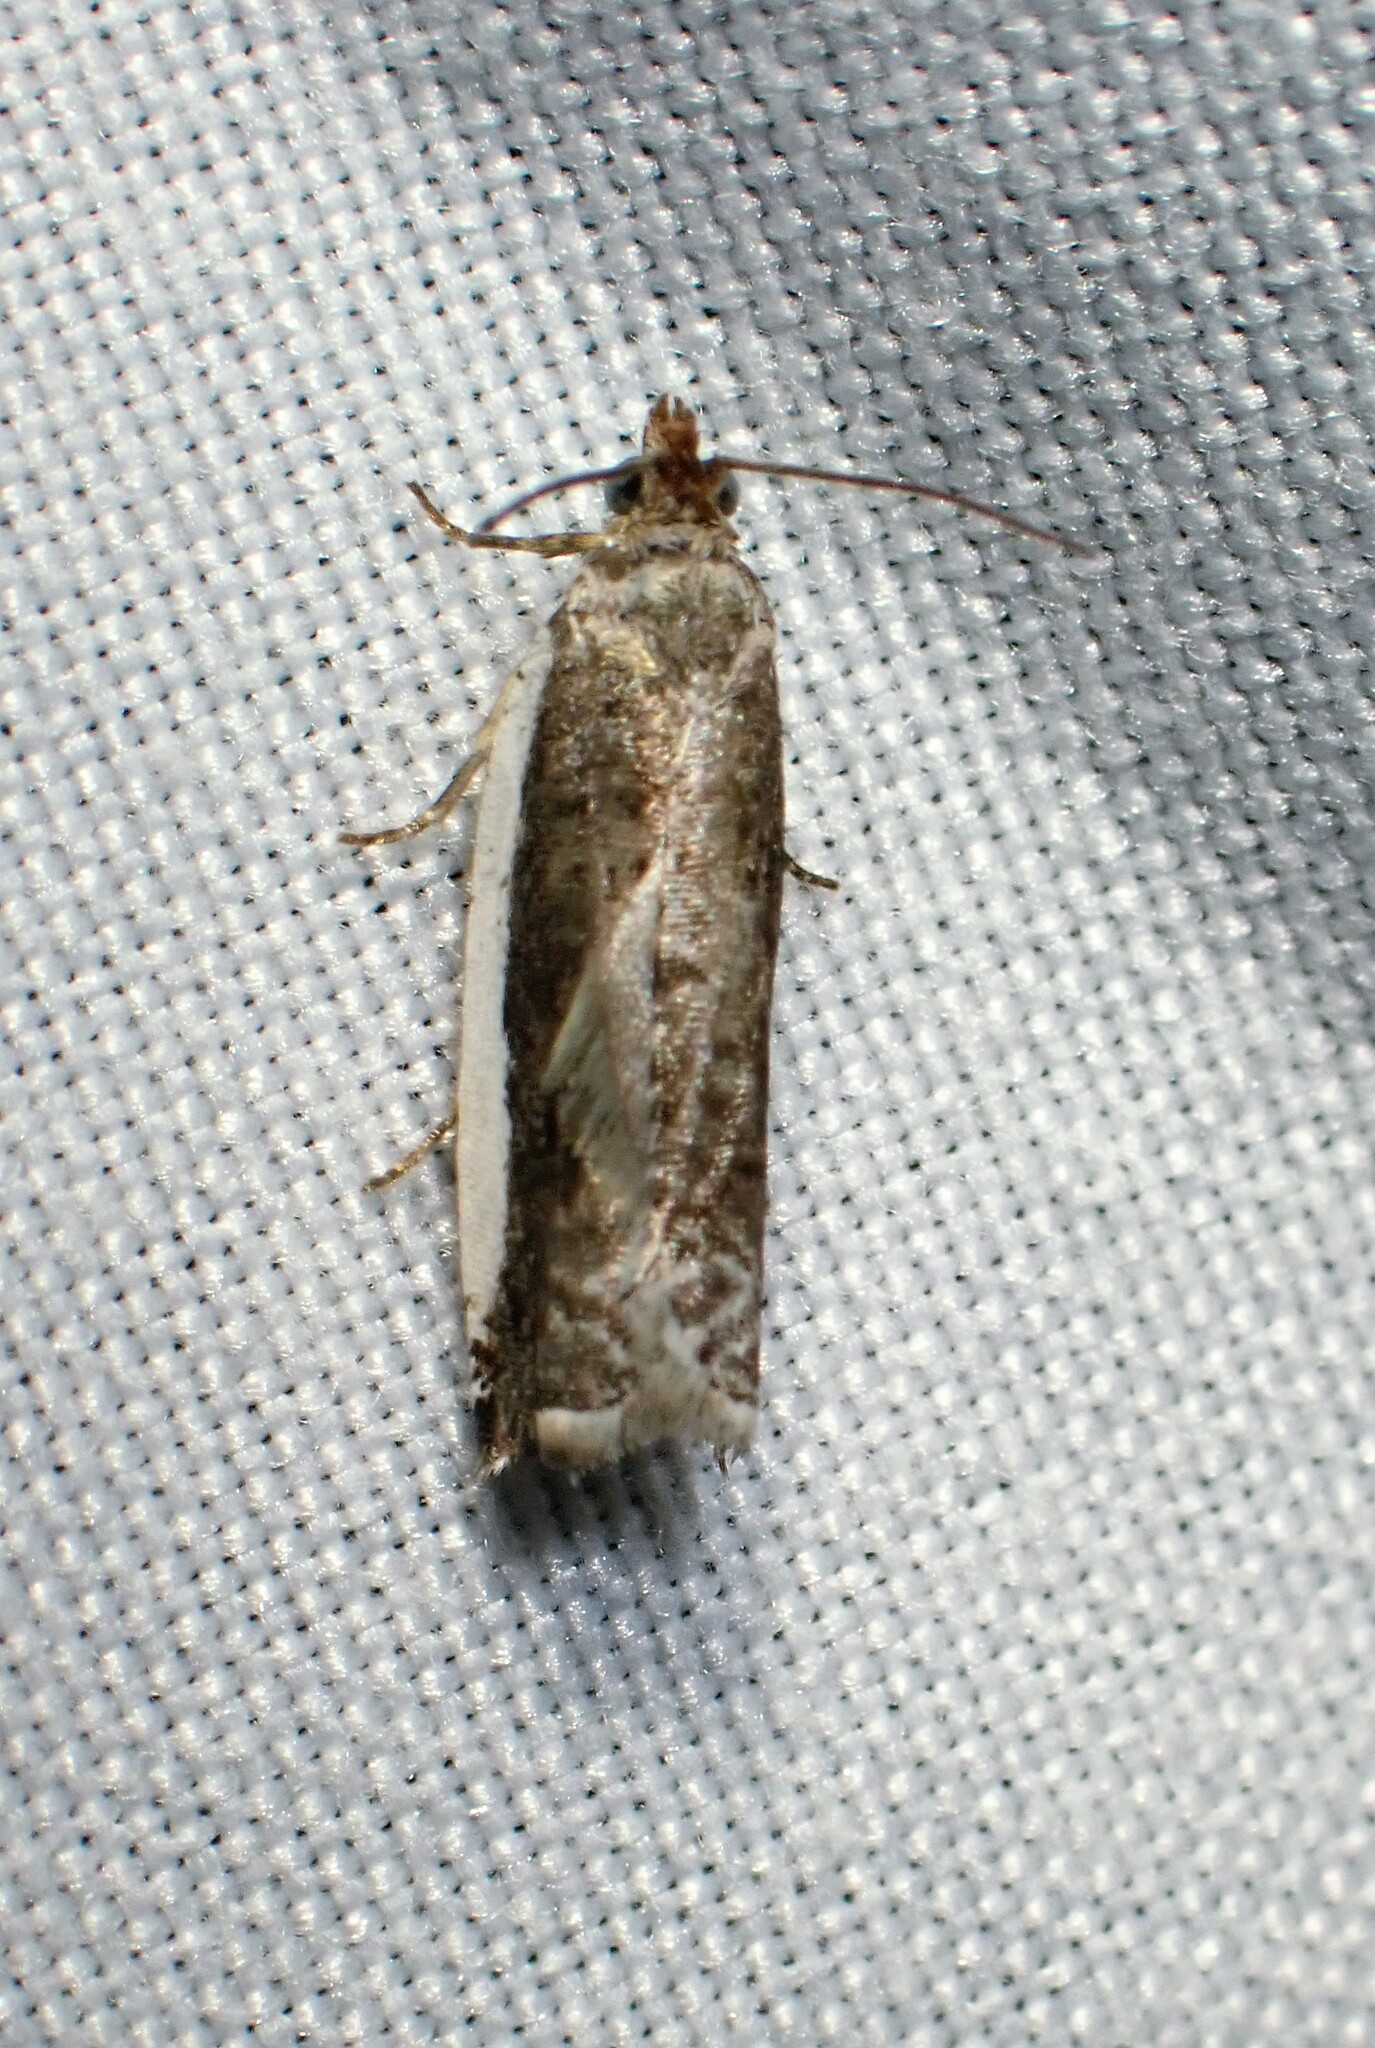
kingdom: Animalia
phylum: Arthropoda
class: Insecta
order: Lepidoptera
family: Tortricidae
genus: Ancylis
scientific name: Ancylis albacostana
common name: White-edged ancylis moth
